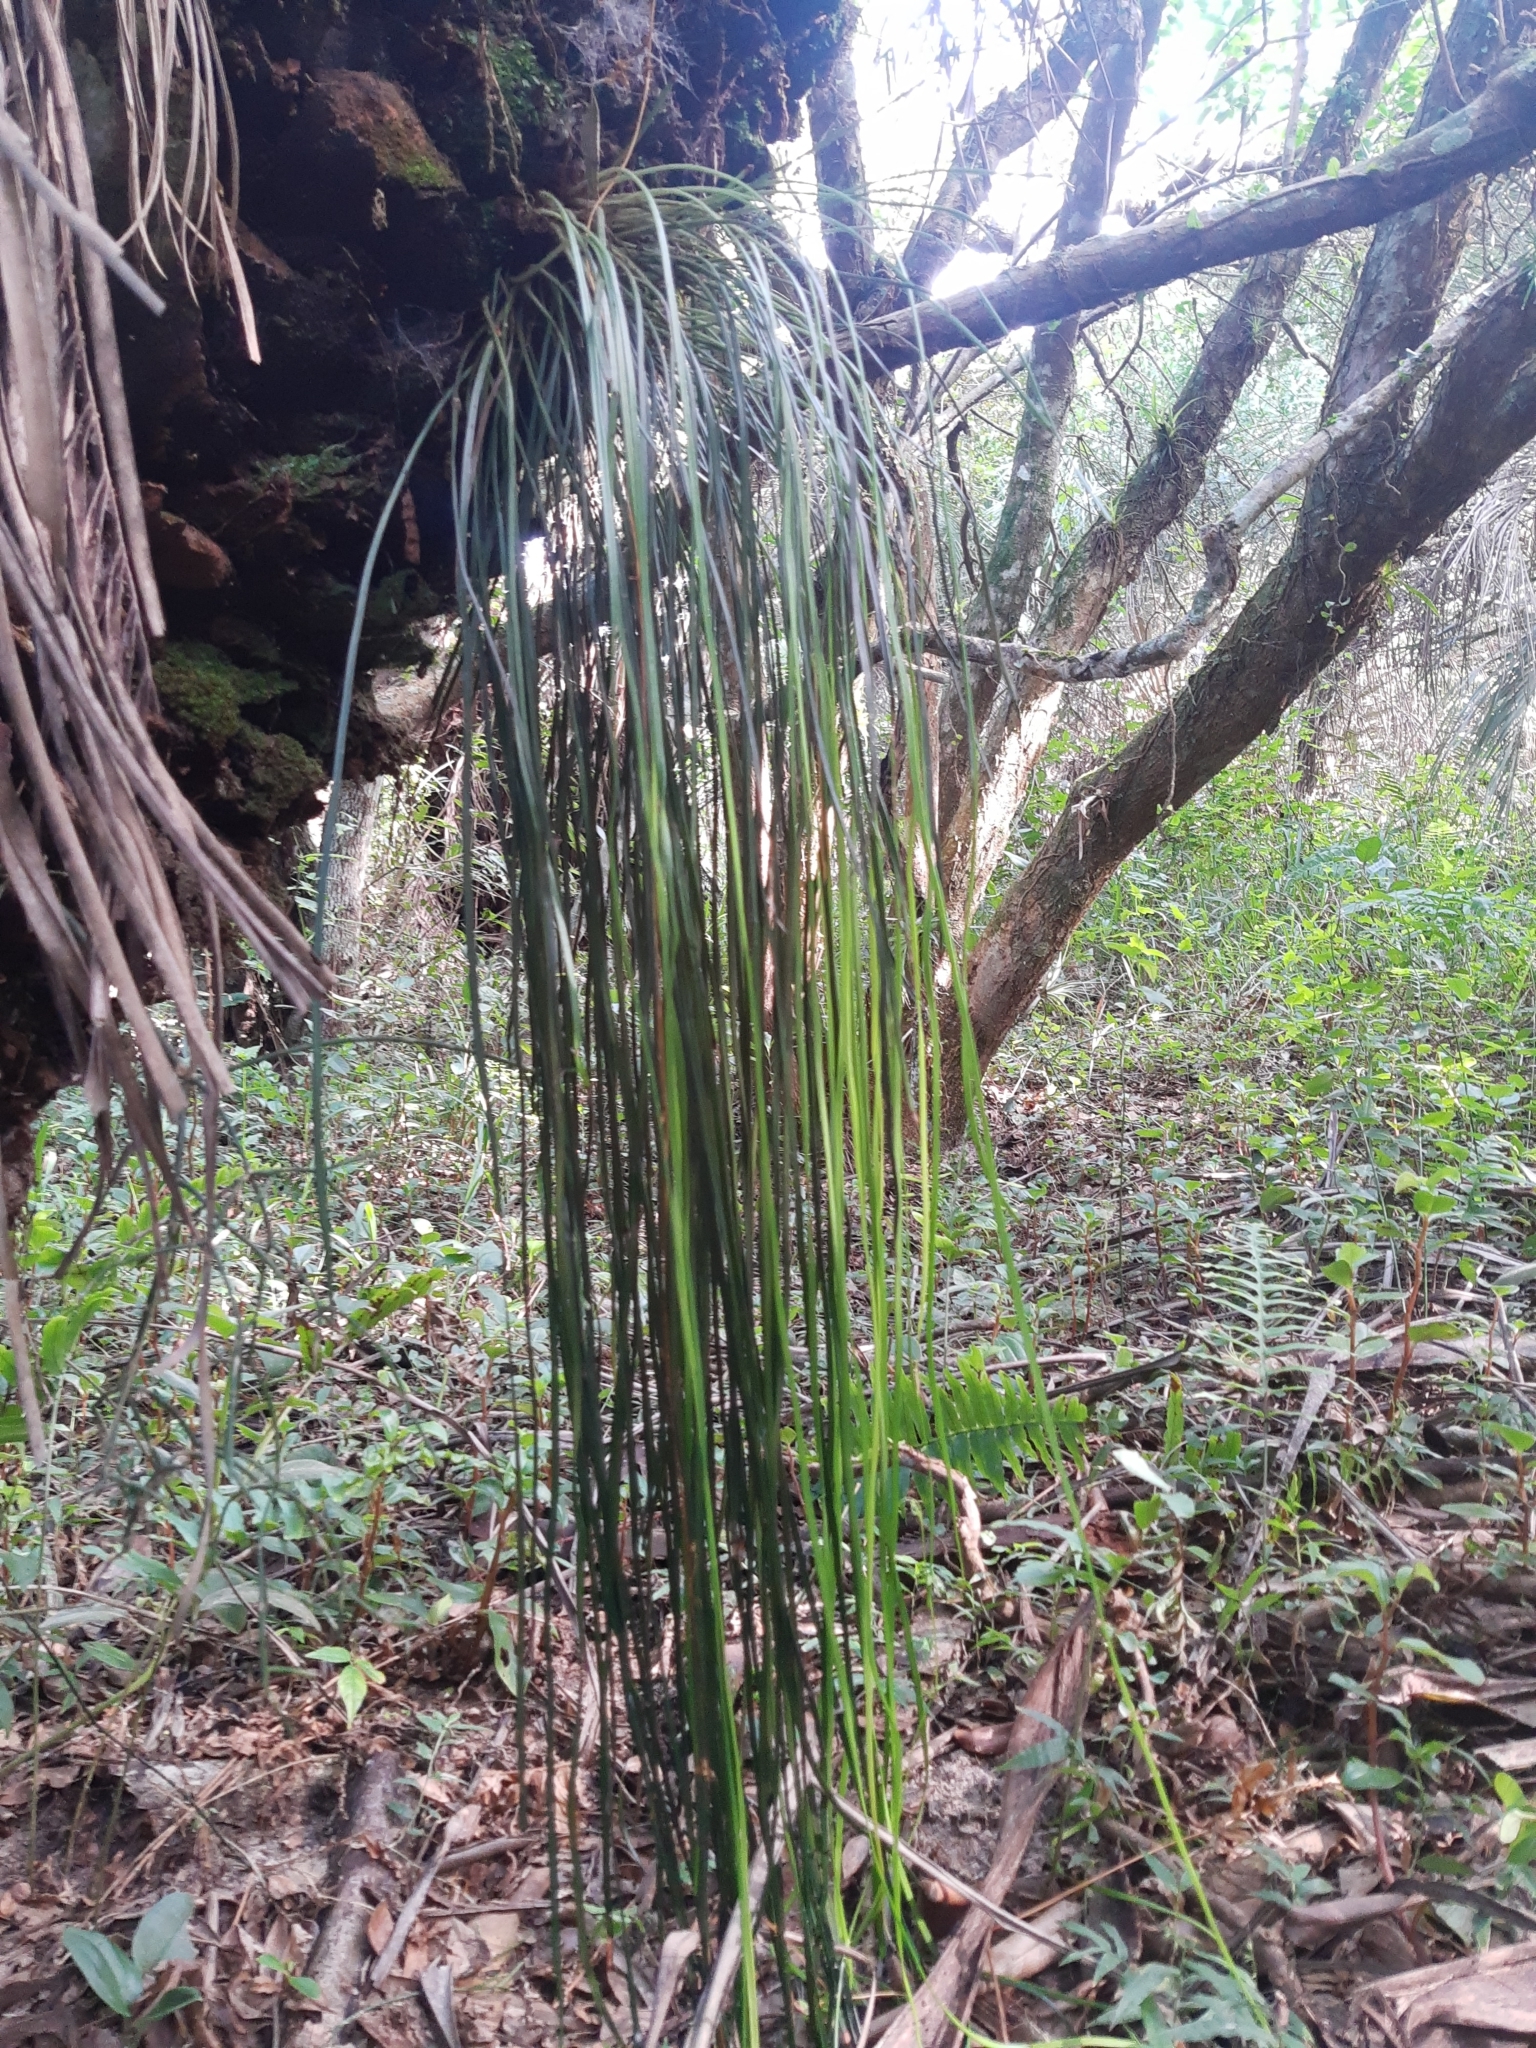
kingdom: Plantae
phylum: Tracheophyta
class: Polypodiopsida
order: Polypodiales
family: Pteridaceae
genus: Vittaria
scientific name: Vittaria lineata
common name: Shoestring fern
